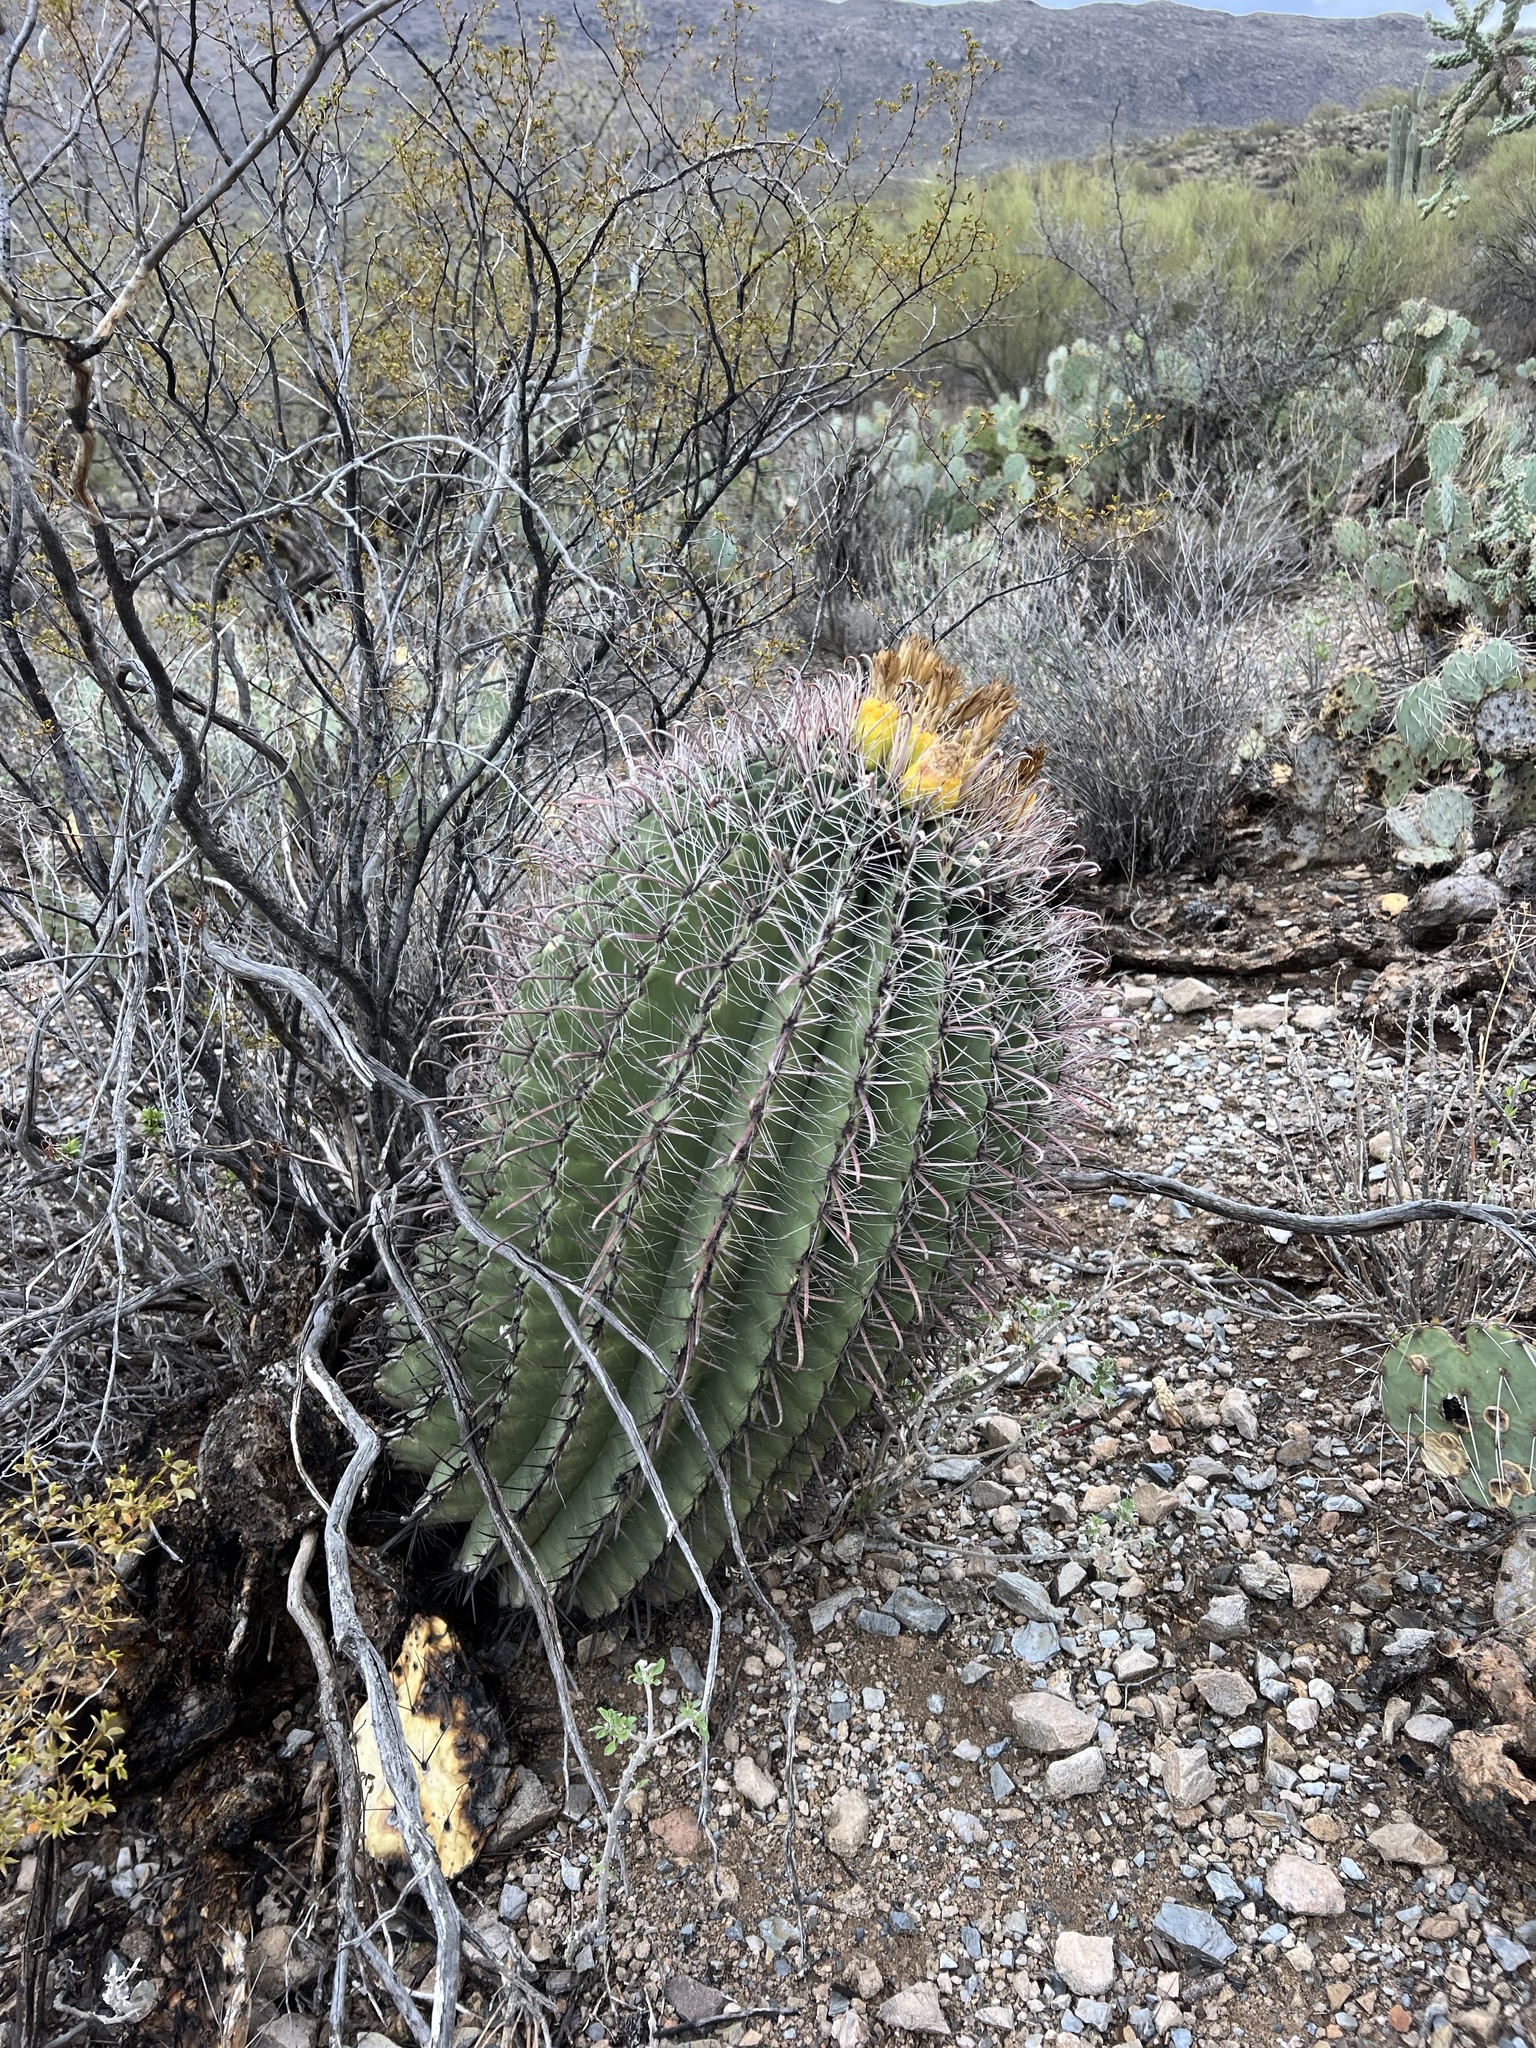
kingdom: Plantae
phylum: Tracheophyta
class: Magnoliopsida
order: Caryophyllales
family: Cactaceae
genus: Ferocactus
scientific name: Ferocactus wislizeni
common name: Candy barrel cactus
